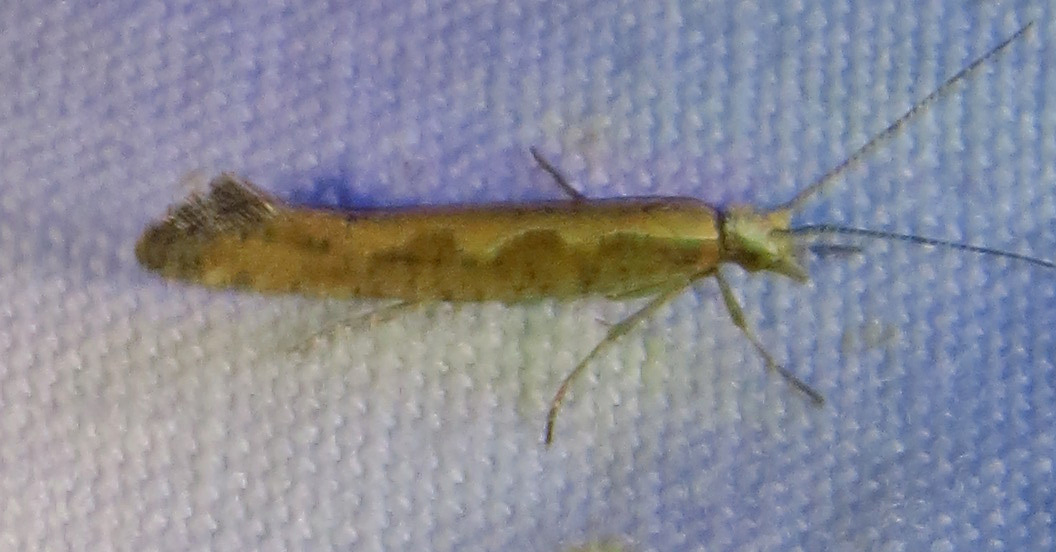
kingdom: Animalia
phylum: Arthropoda
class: Insecta
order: Lepidoptera
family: Plutellidae
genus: Plutella
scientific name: Plutella xylostella
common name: Diamond-back moth
